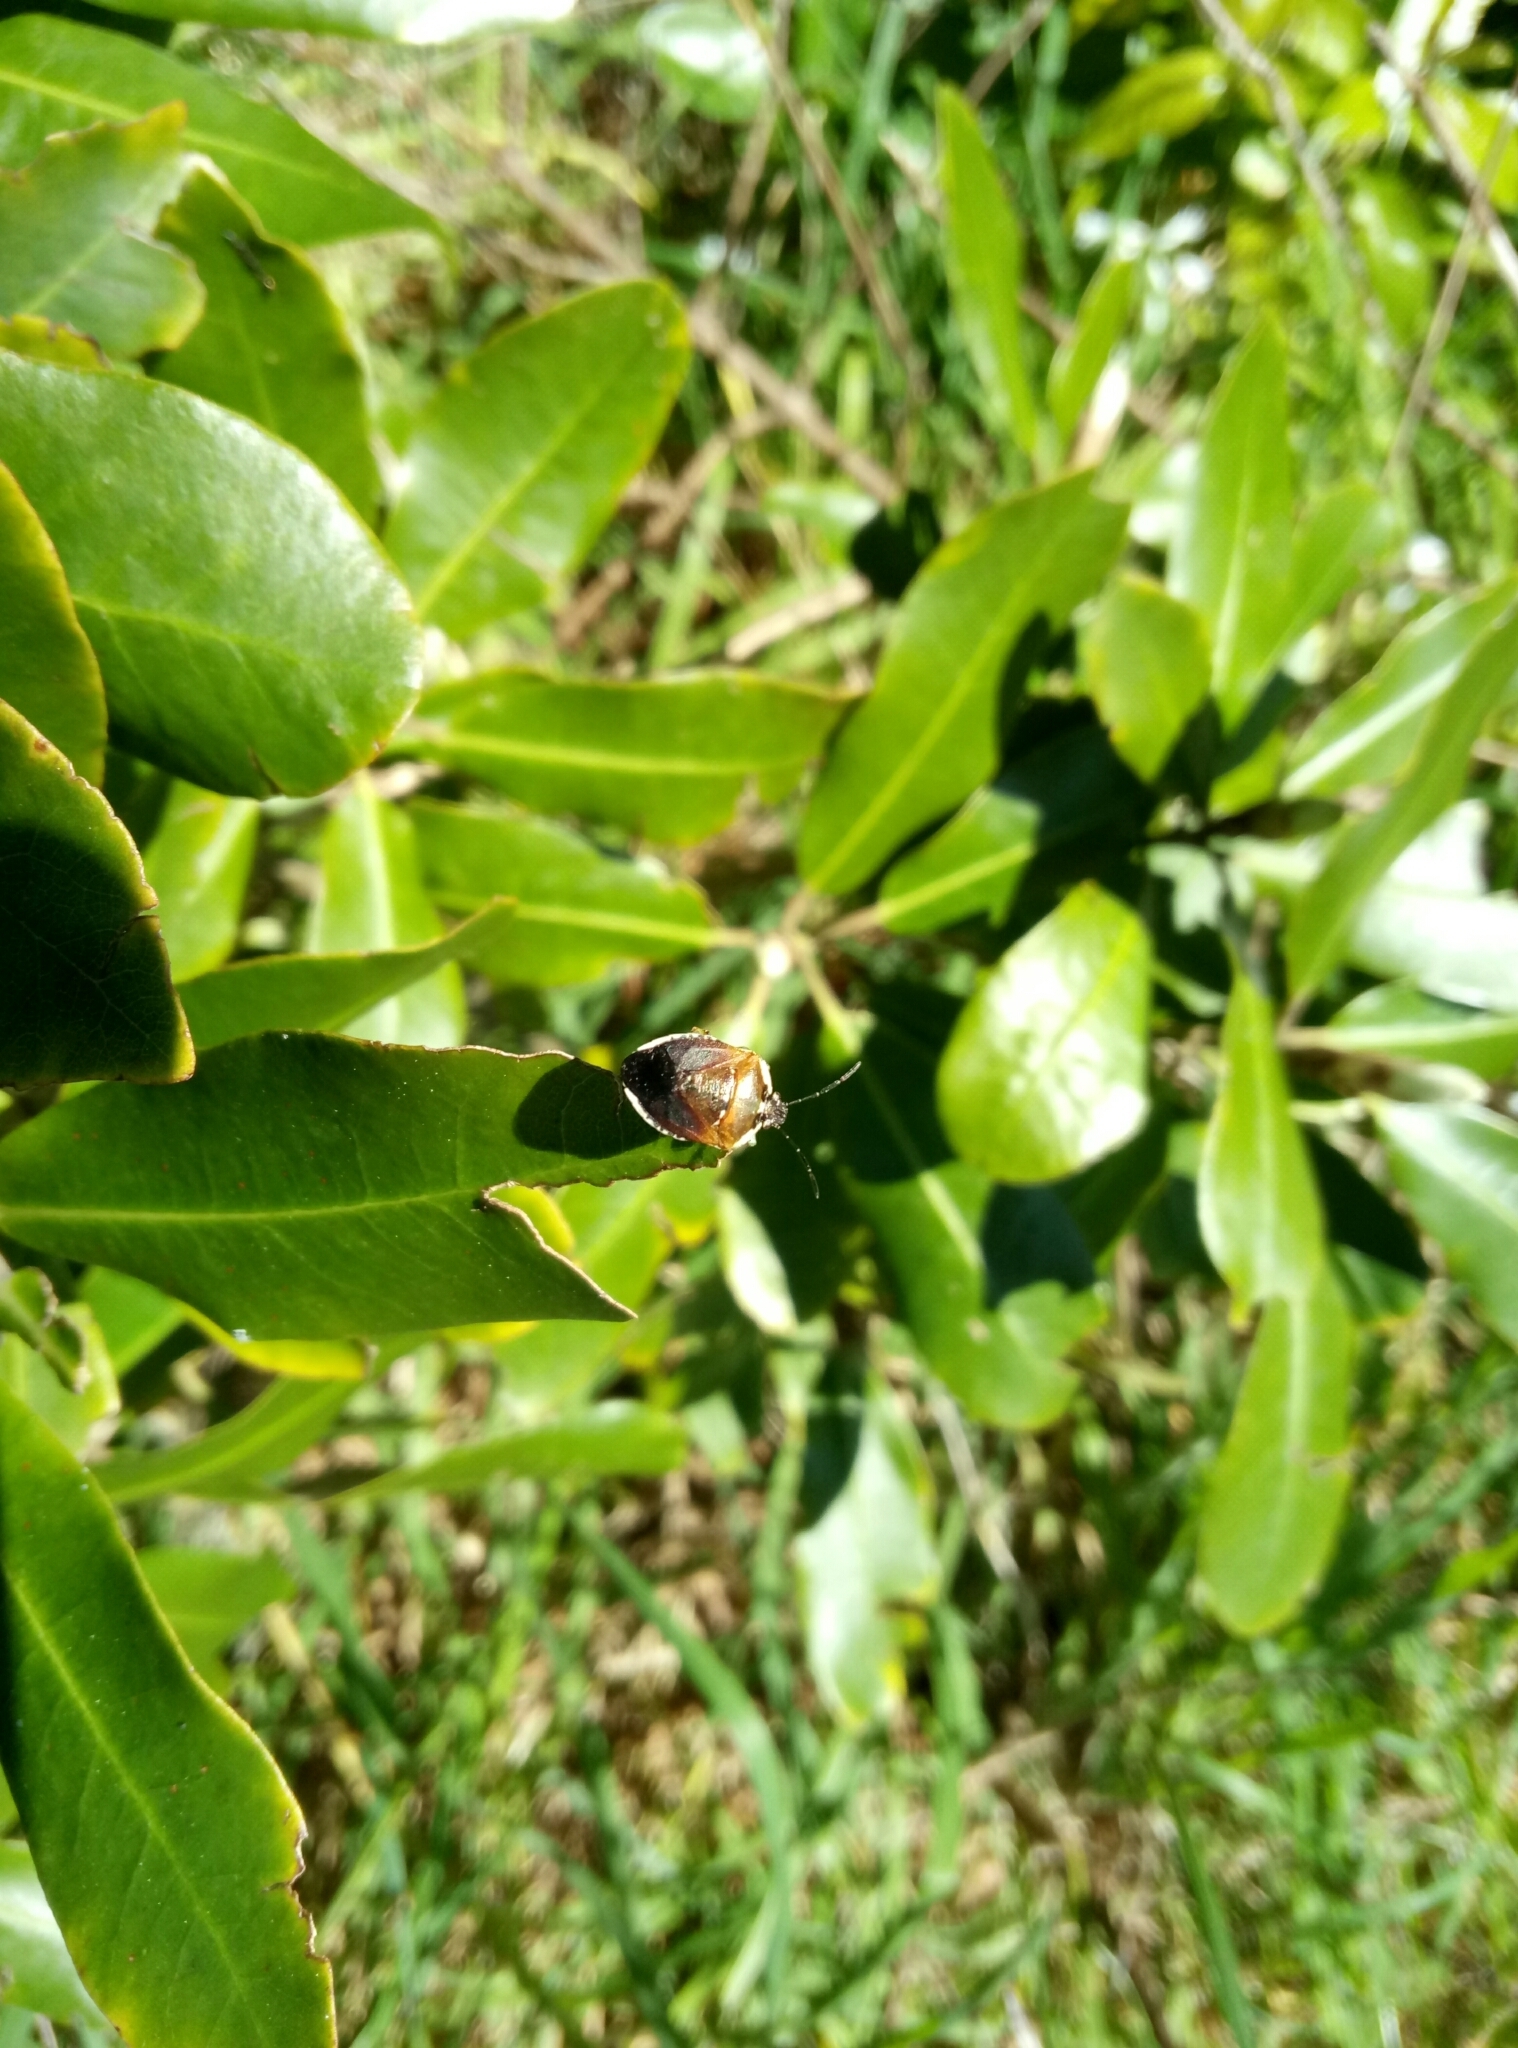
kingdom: Animalia
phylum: Arthropoda
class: Insecta
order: Hemiptera
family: Pentatomidae
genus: Monteithiella
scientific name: Monteithiella
